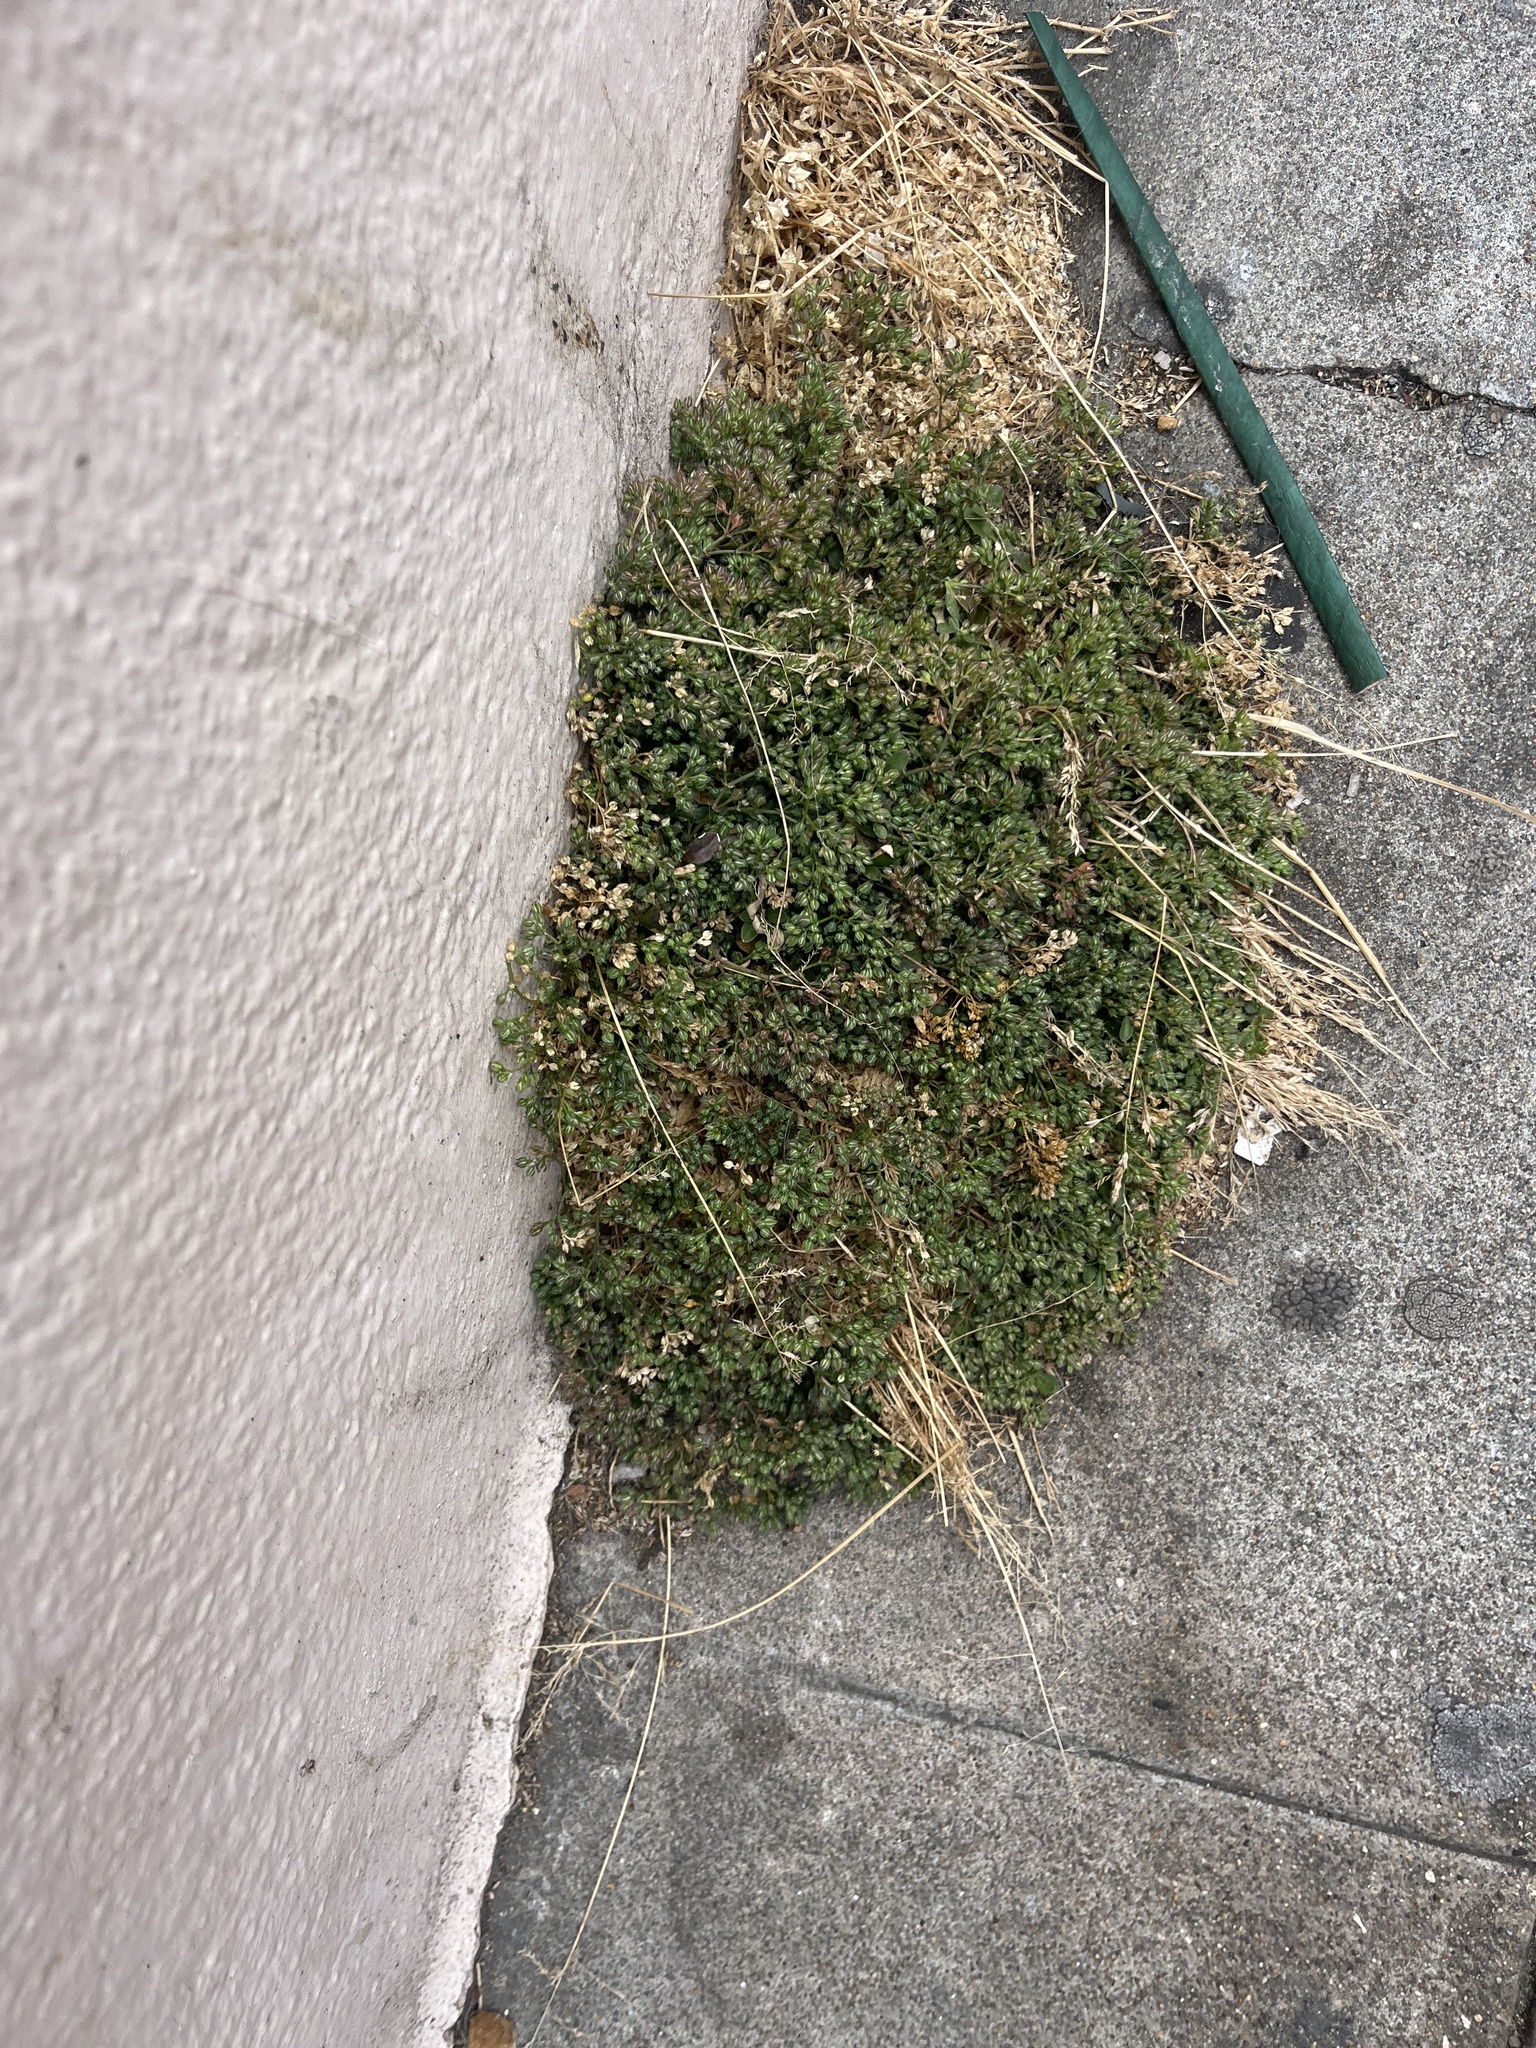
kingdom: Plantae
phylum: Tracheophyta
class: Magnoliopsida
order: Caryophyllales
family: Caryophyllaceae
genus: Polycarpon
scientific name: Polycarpon tetraphyllum
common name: Four-leaved all-seed
